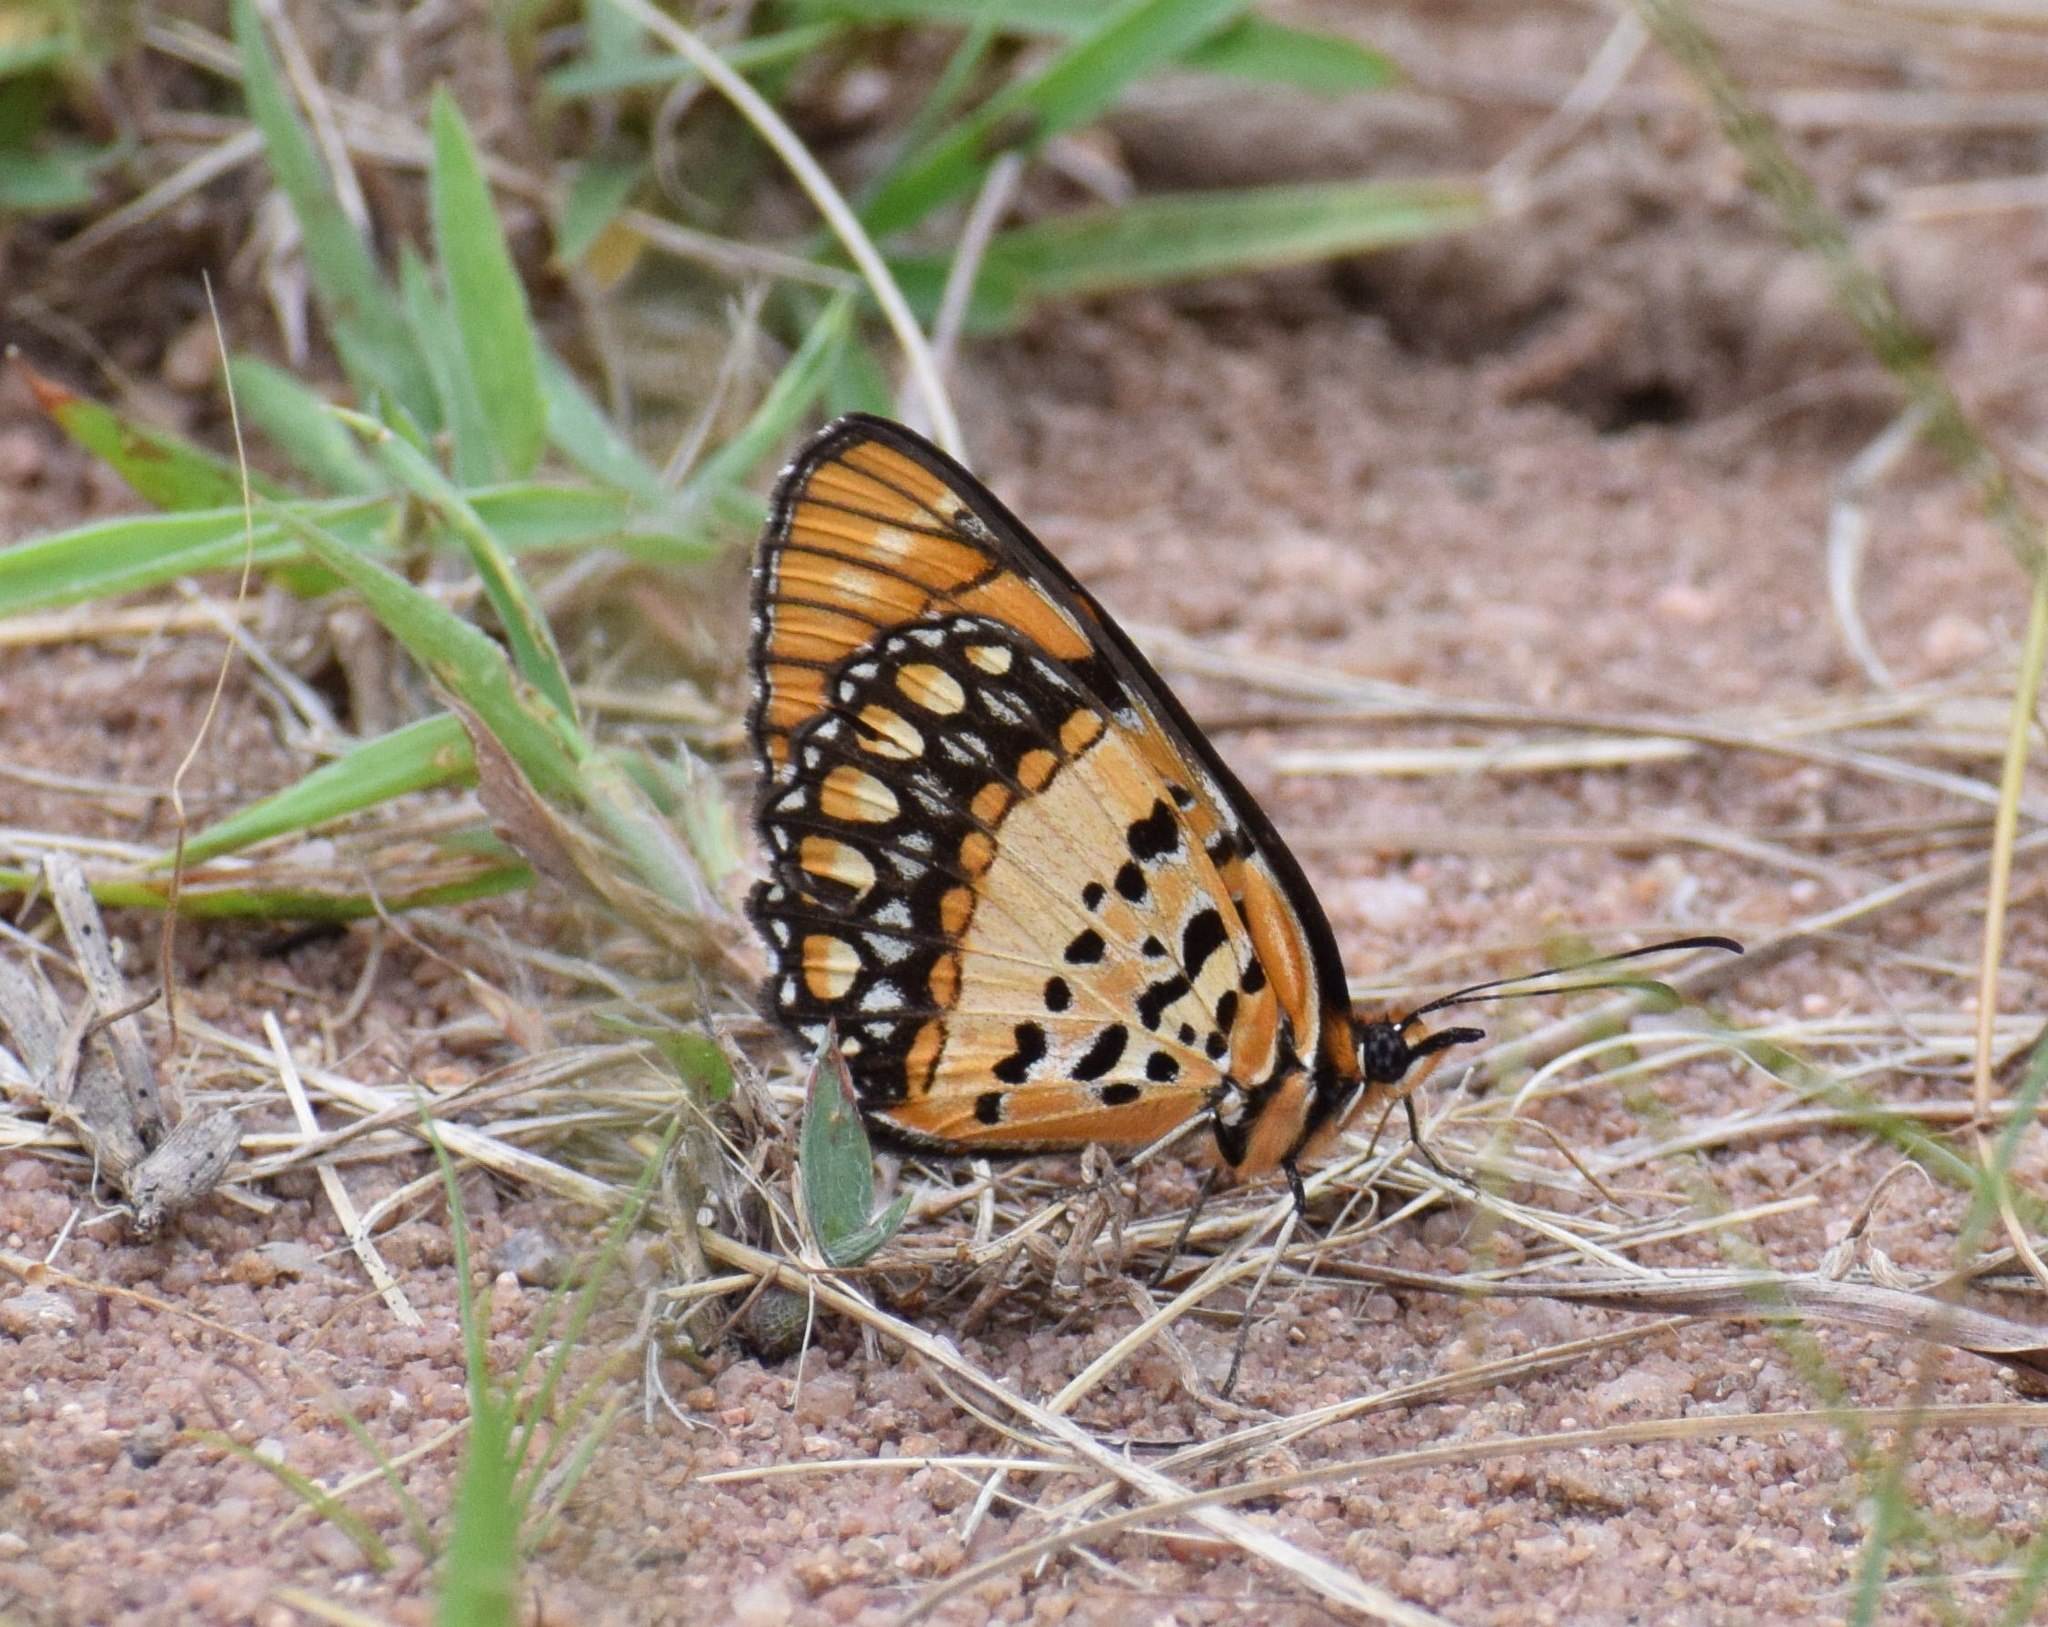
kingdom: Animalia
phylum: Arthropoda
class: Insecta
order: Lepidoptera
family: Nymphalidae
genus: Byblia
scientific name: Byblia acheloia
